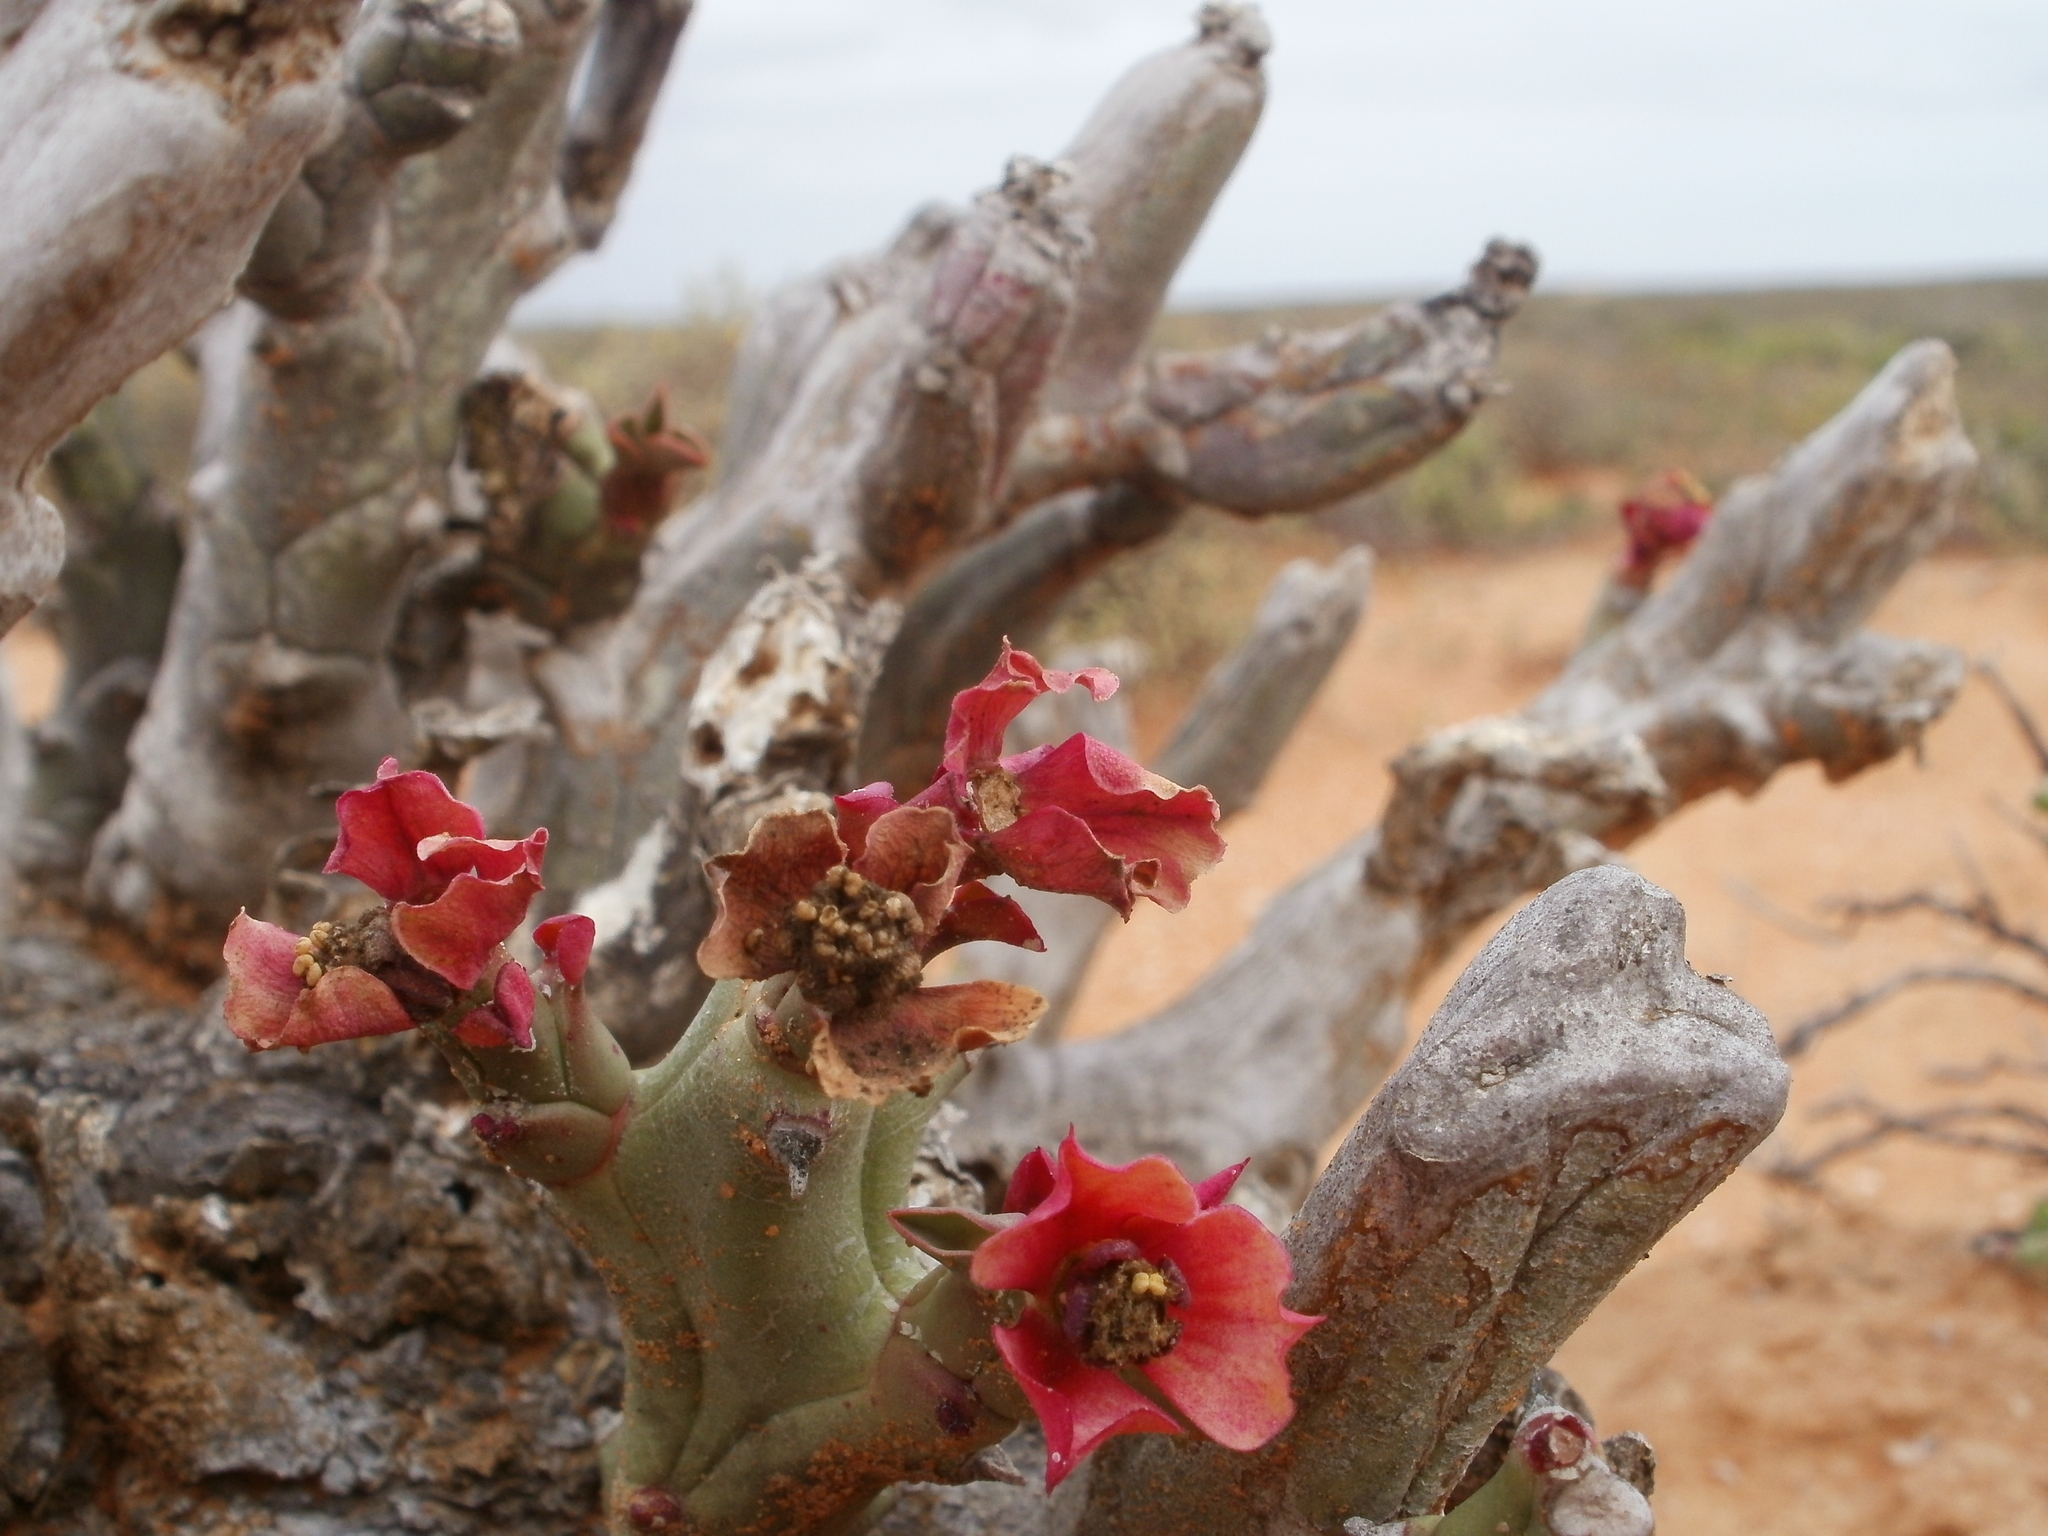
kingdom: Plantae
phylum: Tracheophyta
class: Magnoliopsida
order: Malpighiales
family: Euphorbiaceae
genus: Euphorbia
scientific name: Euphorbia hamata
